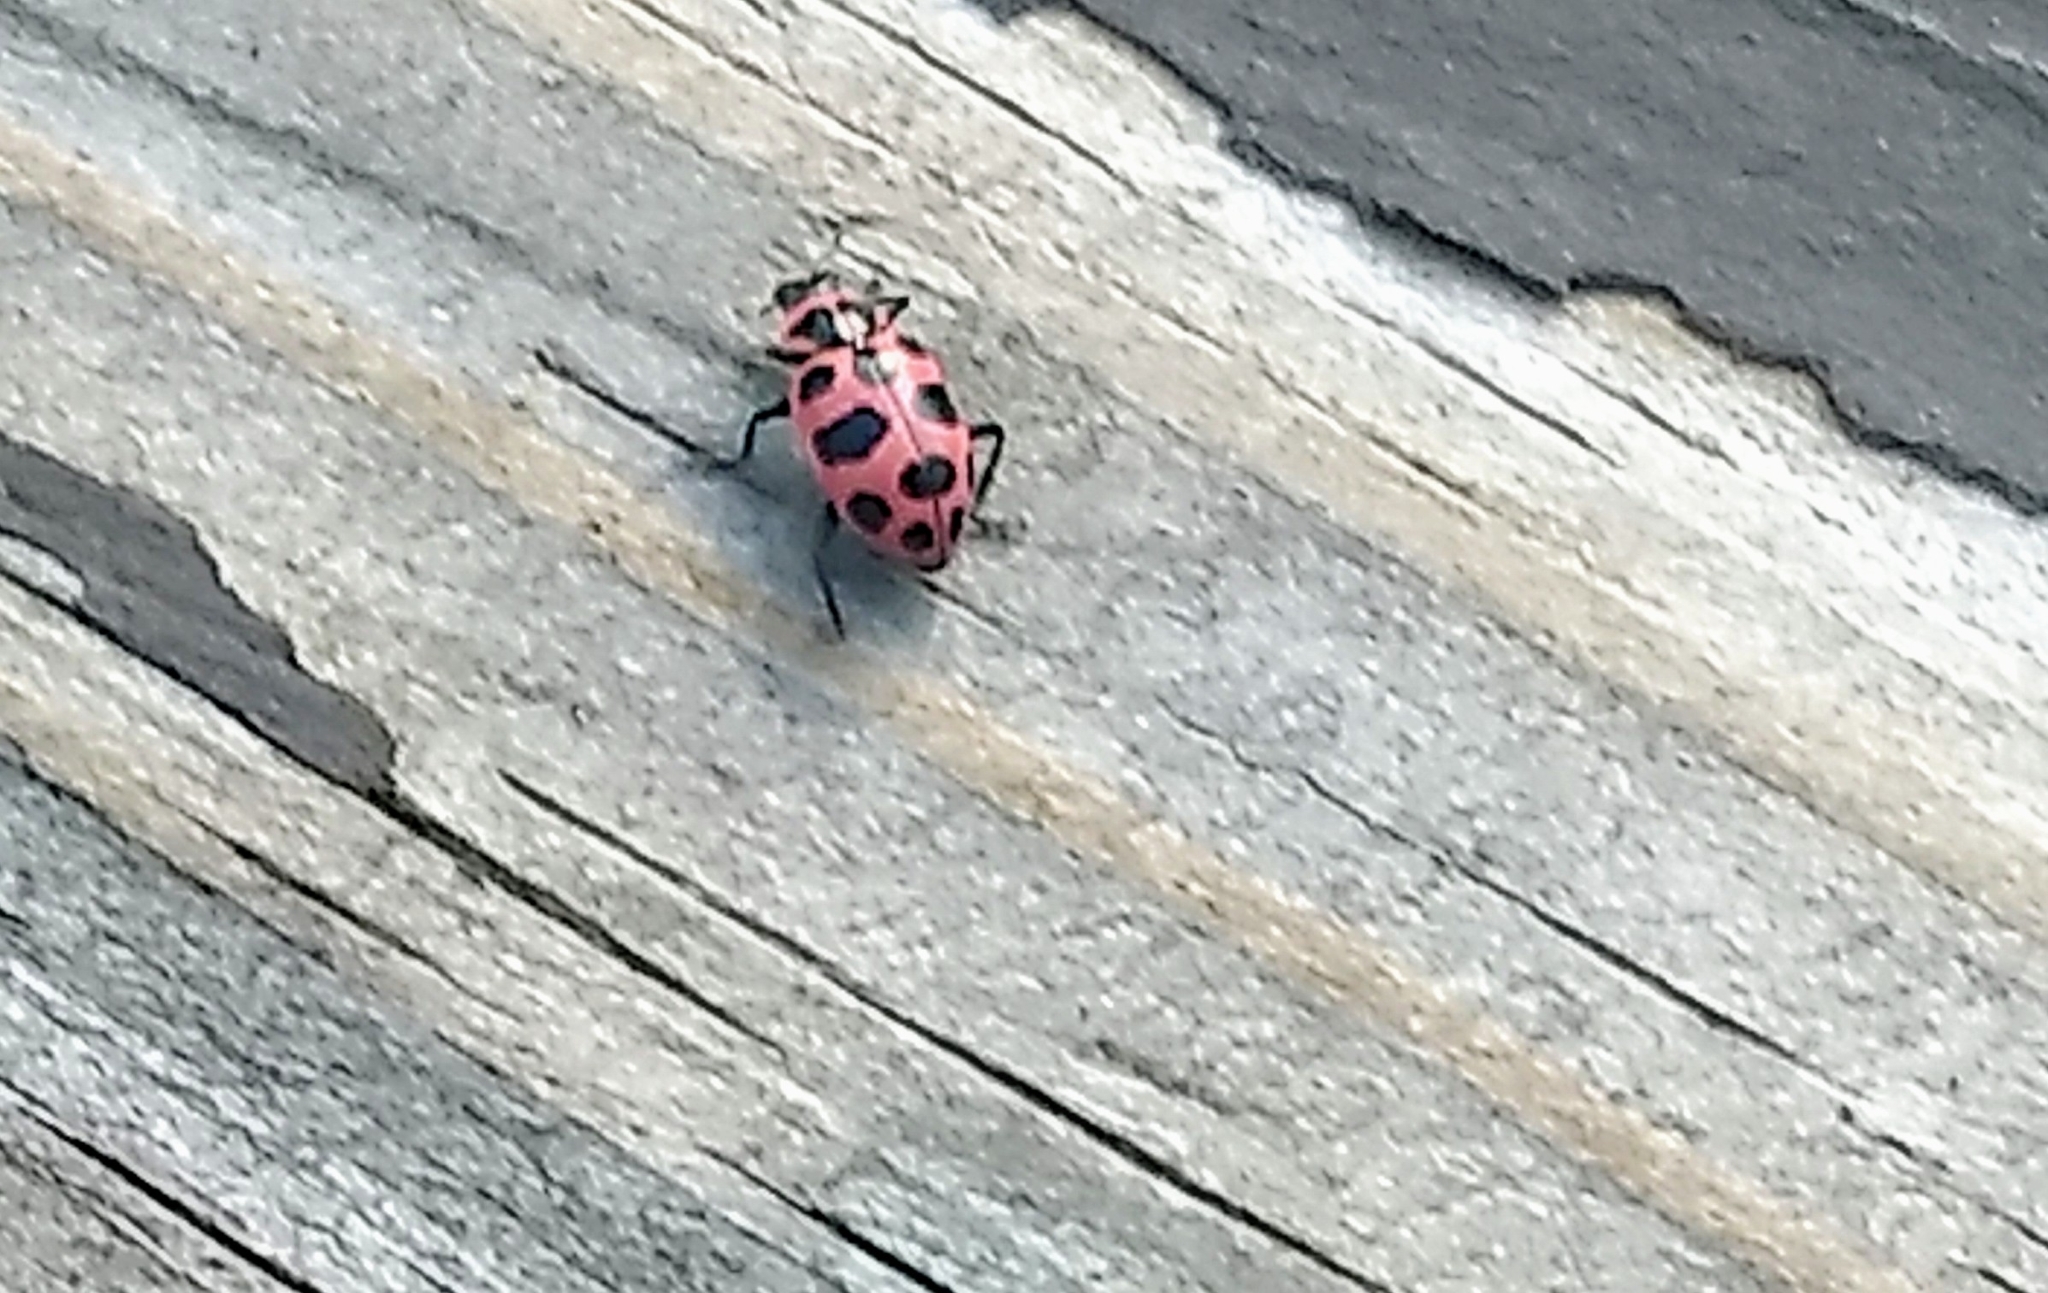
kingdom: Animalia
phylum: Arthropoda
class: Insecta
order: Coleoptera
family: Coccinellidae
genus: Coleomegilla
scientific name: Coleomegilla maculata
